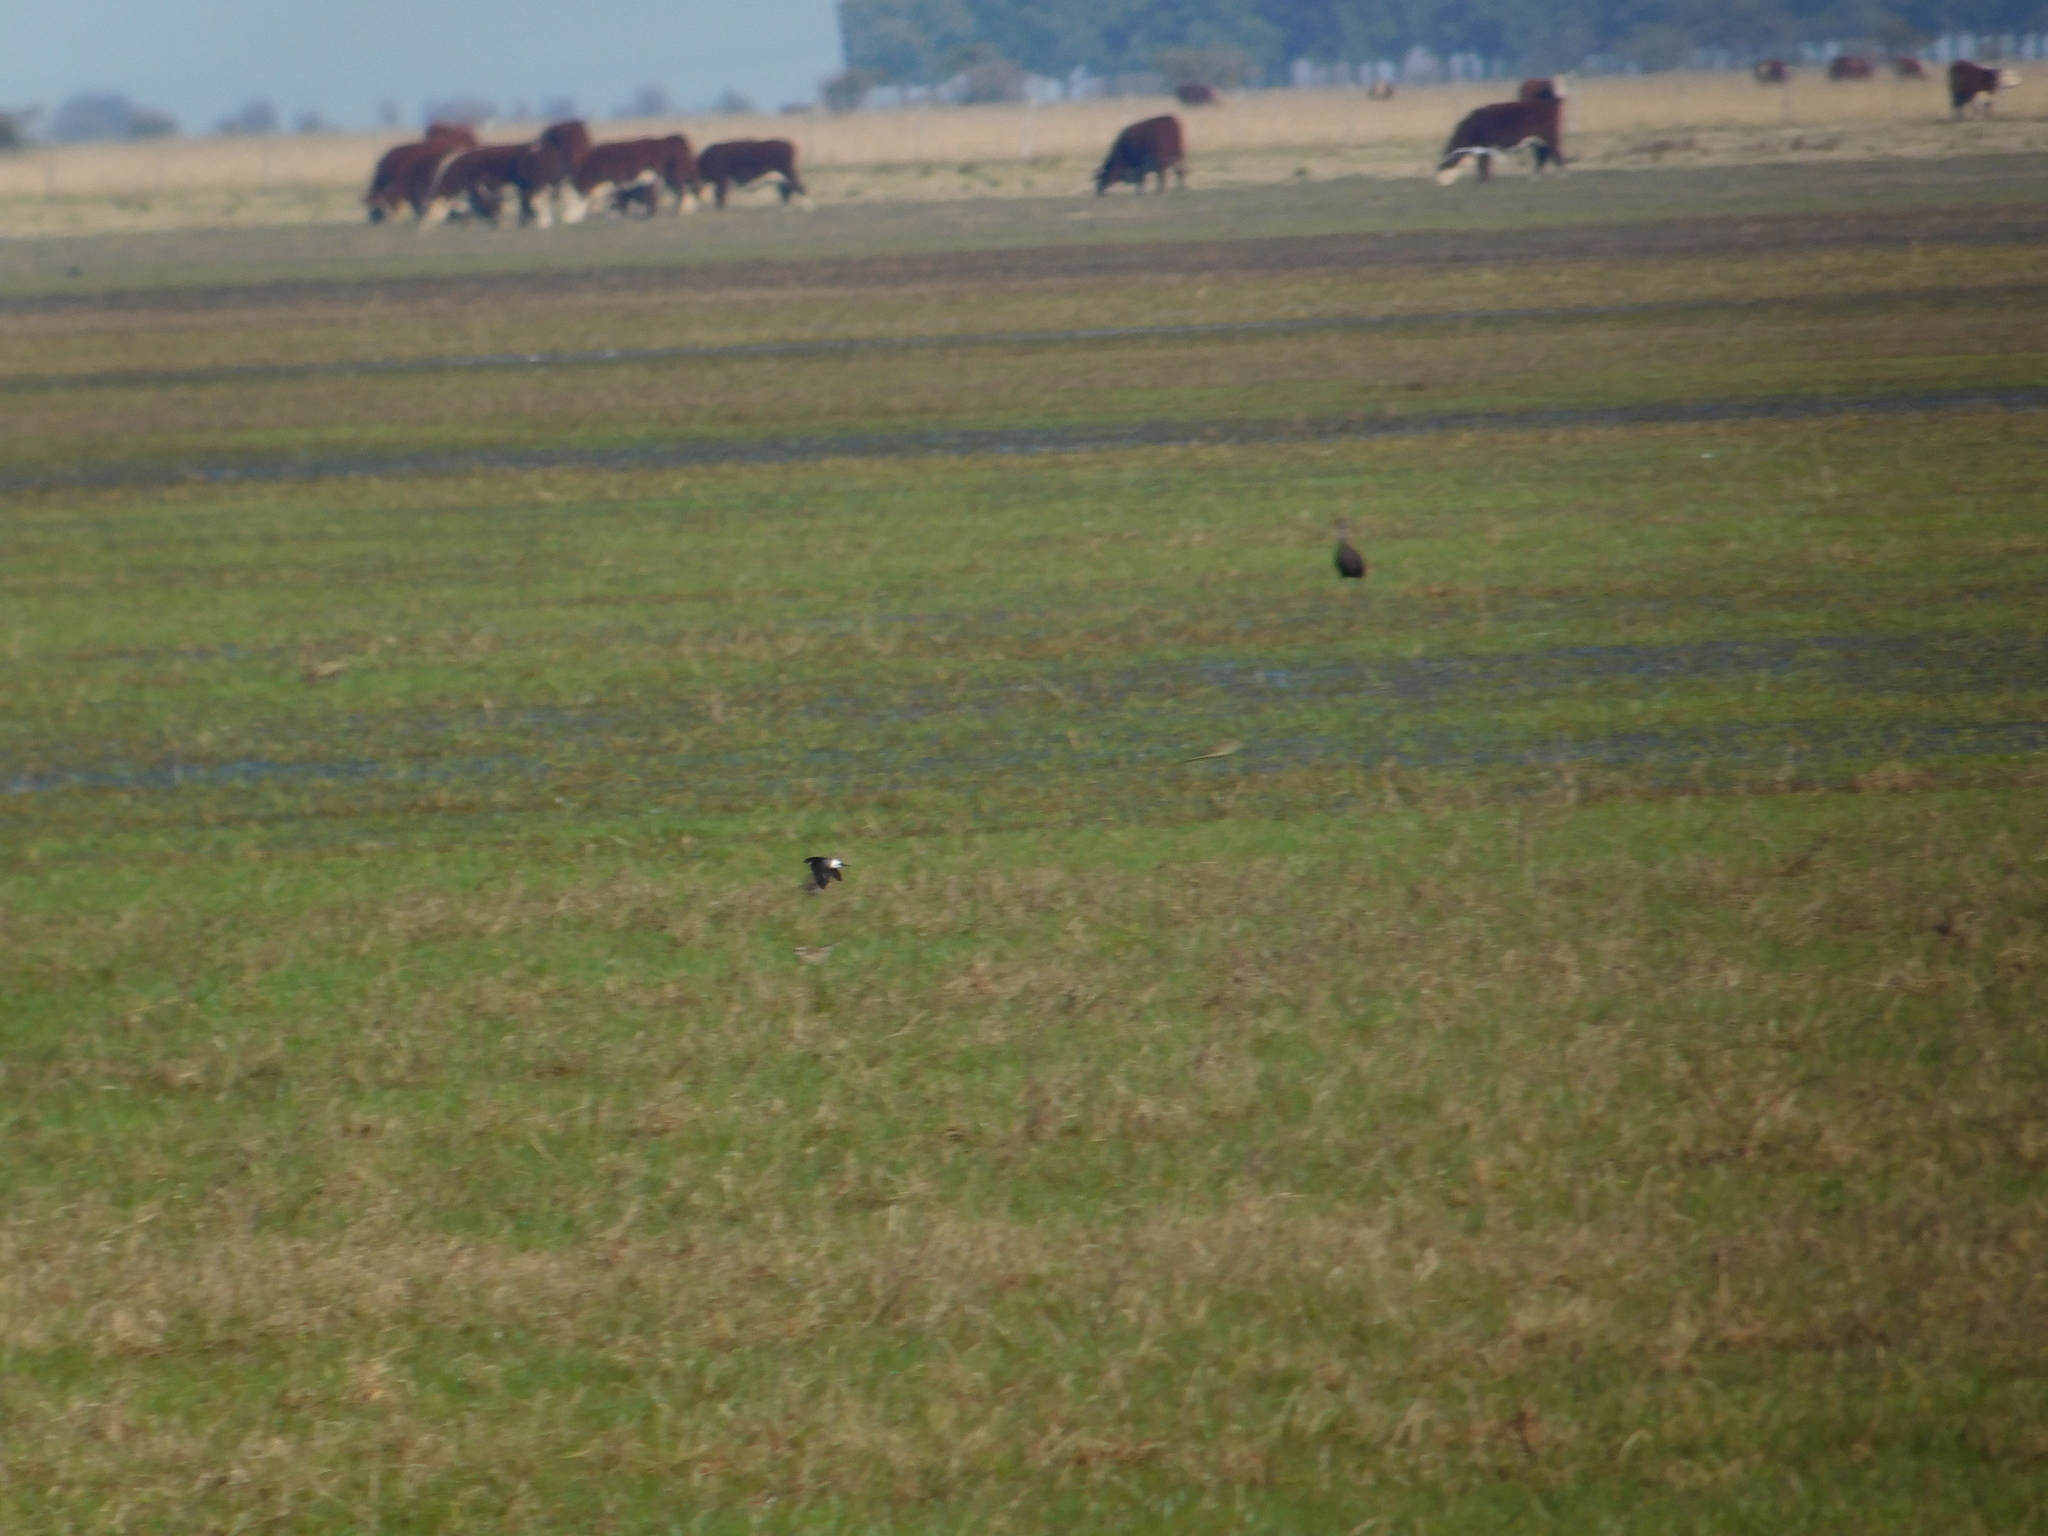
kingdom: Animalia
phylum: Chordata
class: Aves
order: Passeriformes
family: Hirundinidae
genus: Tachycineta
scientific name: Tachycineta leucopyga
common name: Chilean swallow
